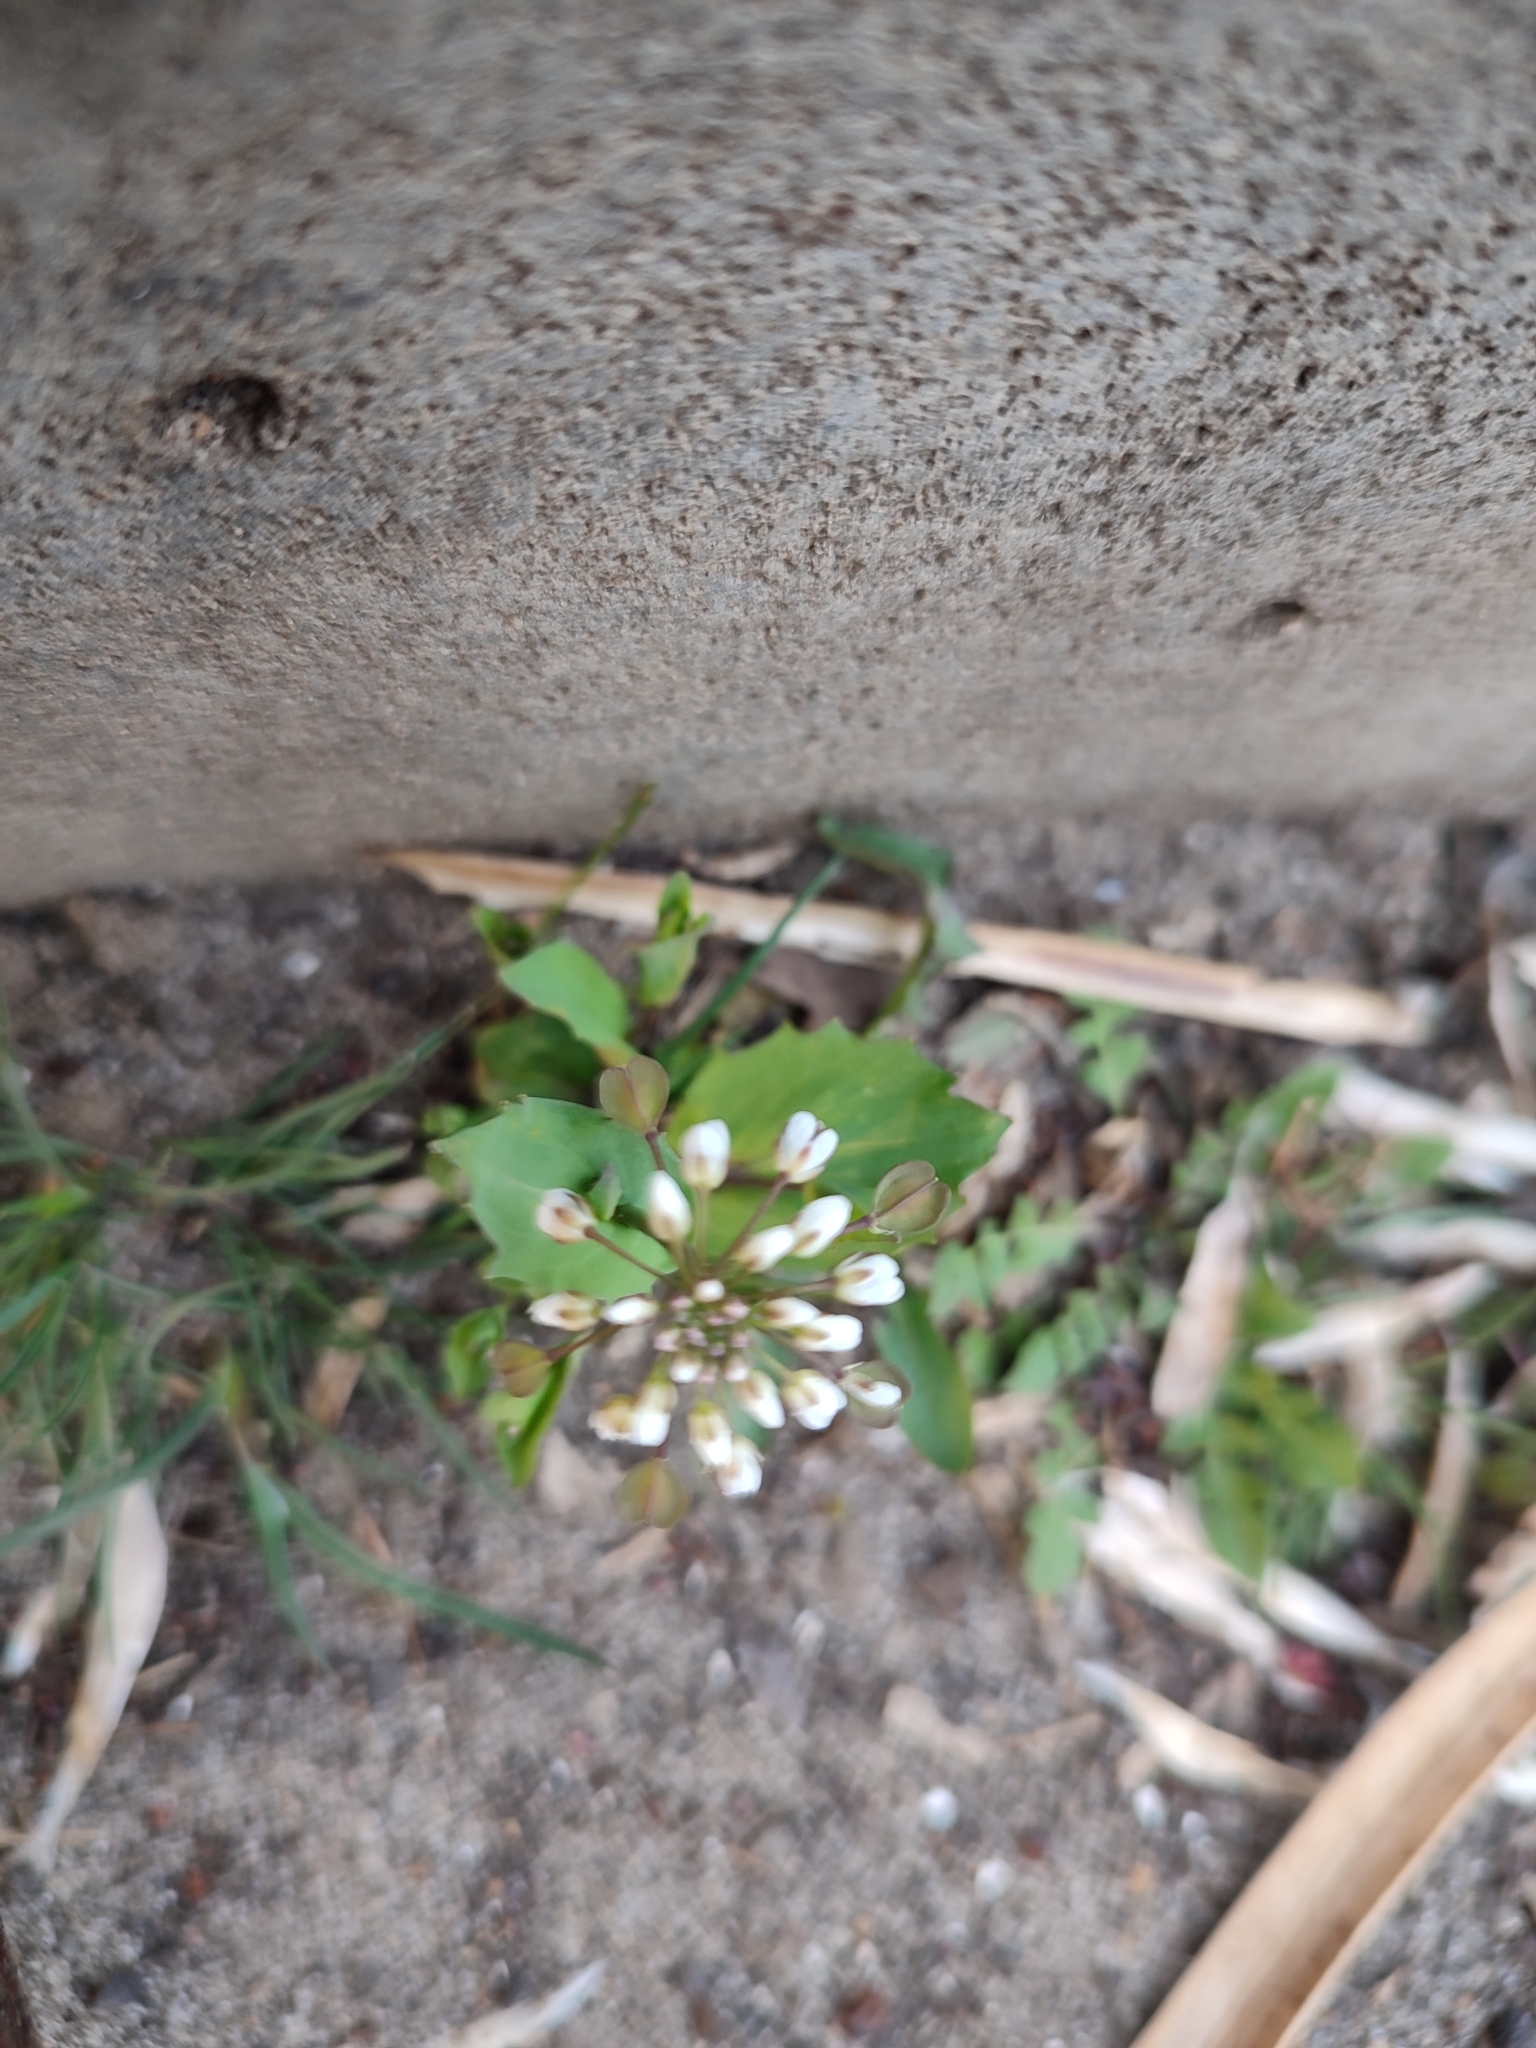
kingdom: Plantae
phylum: Tracheophyta
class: Magnoliopsida
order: Brassicales
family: Brassicaceae
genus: Noccaea
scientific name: Noccaea perfoliata
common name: Perfoliate pennycress
